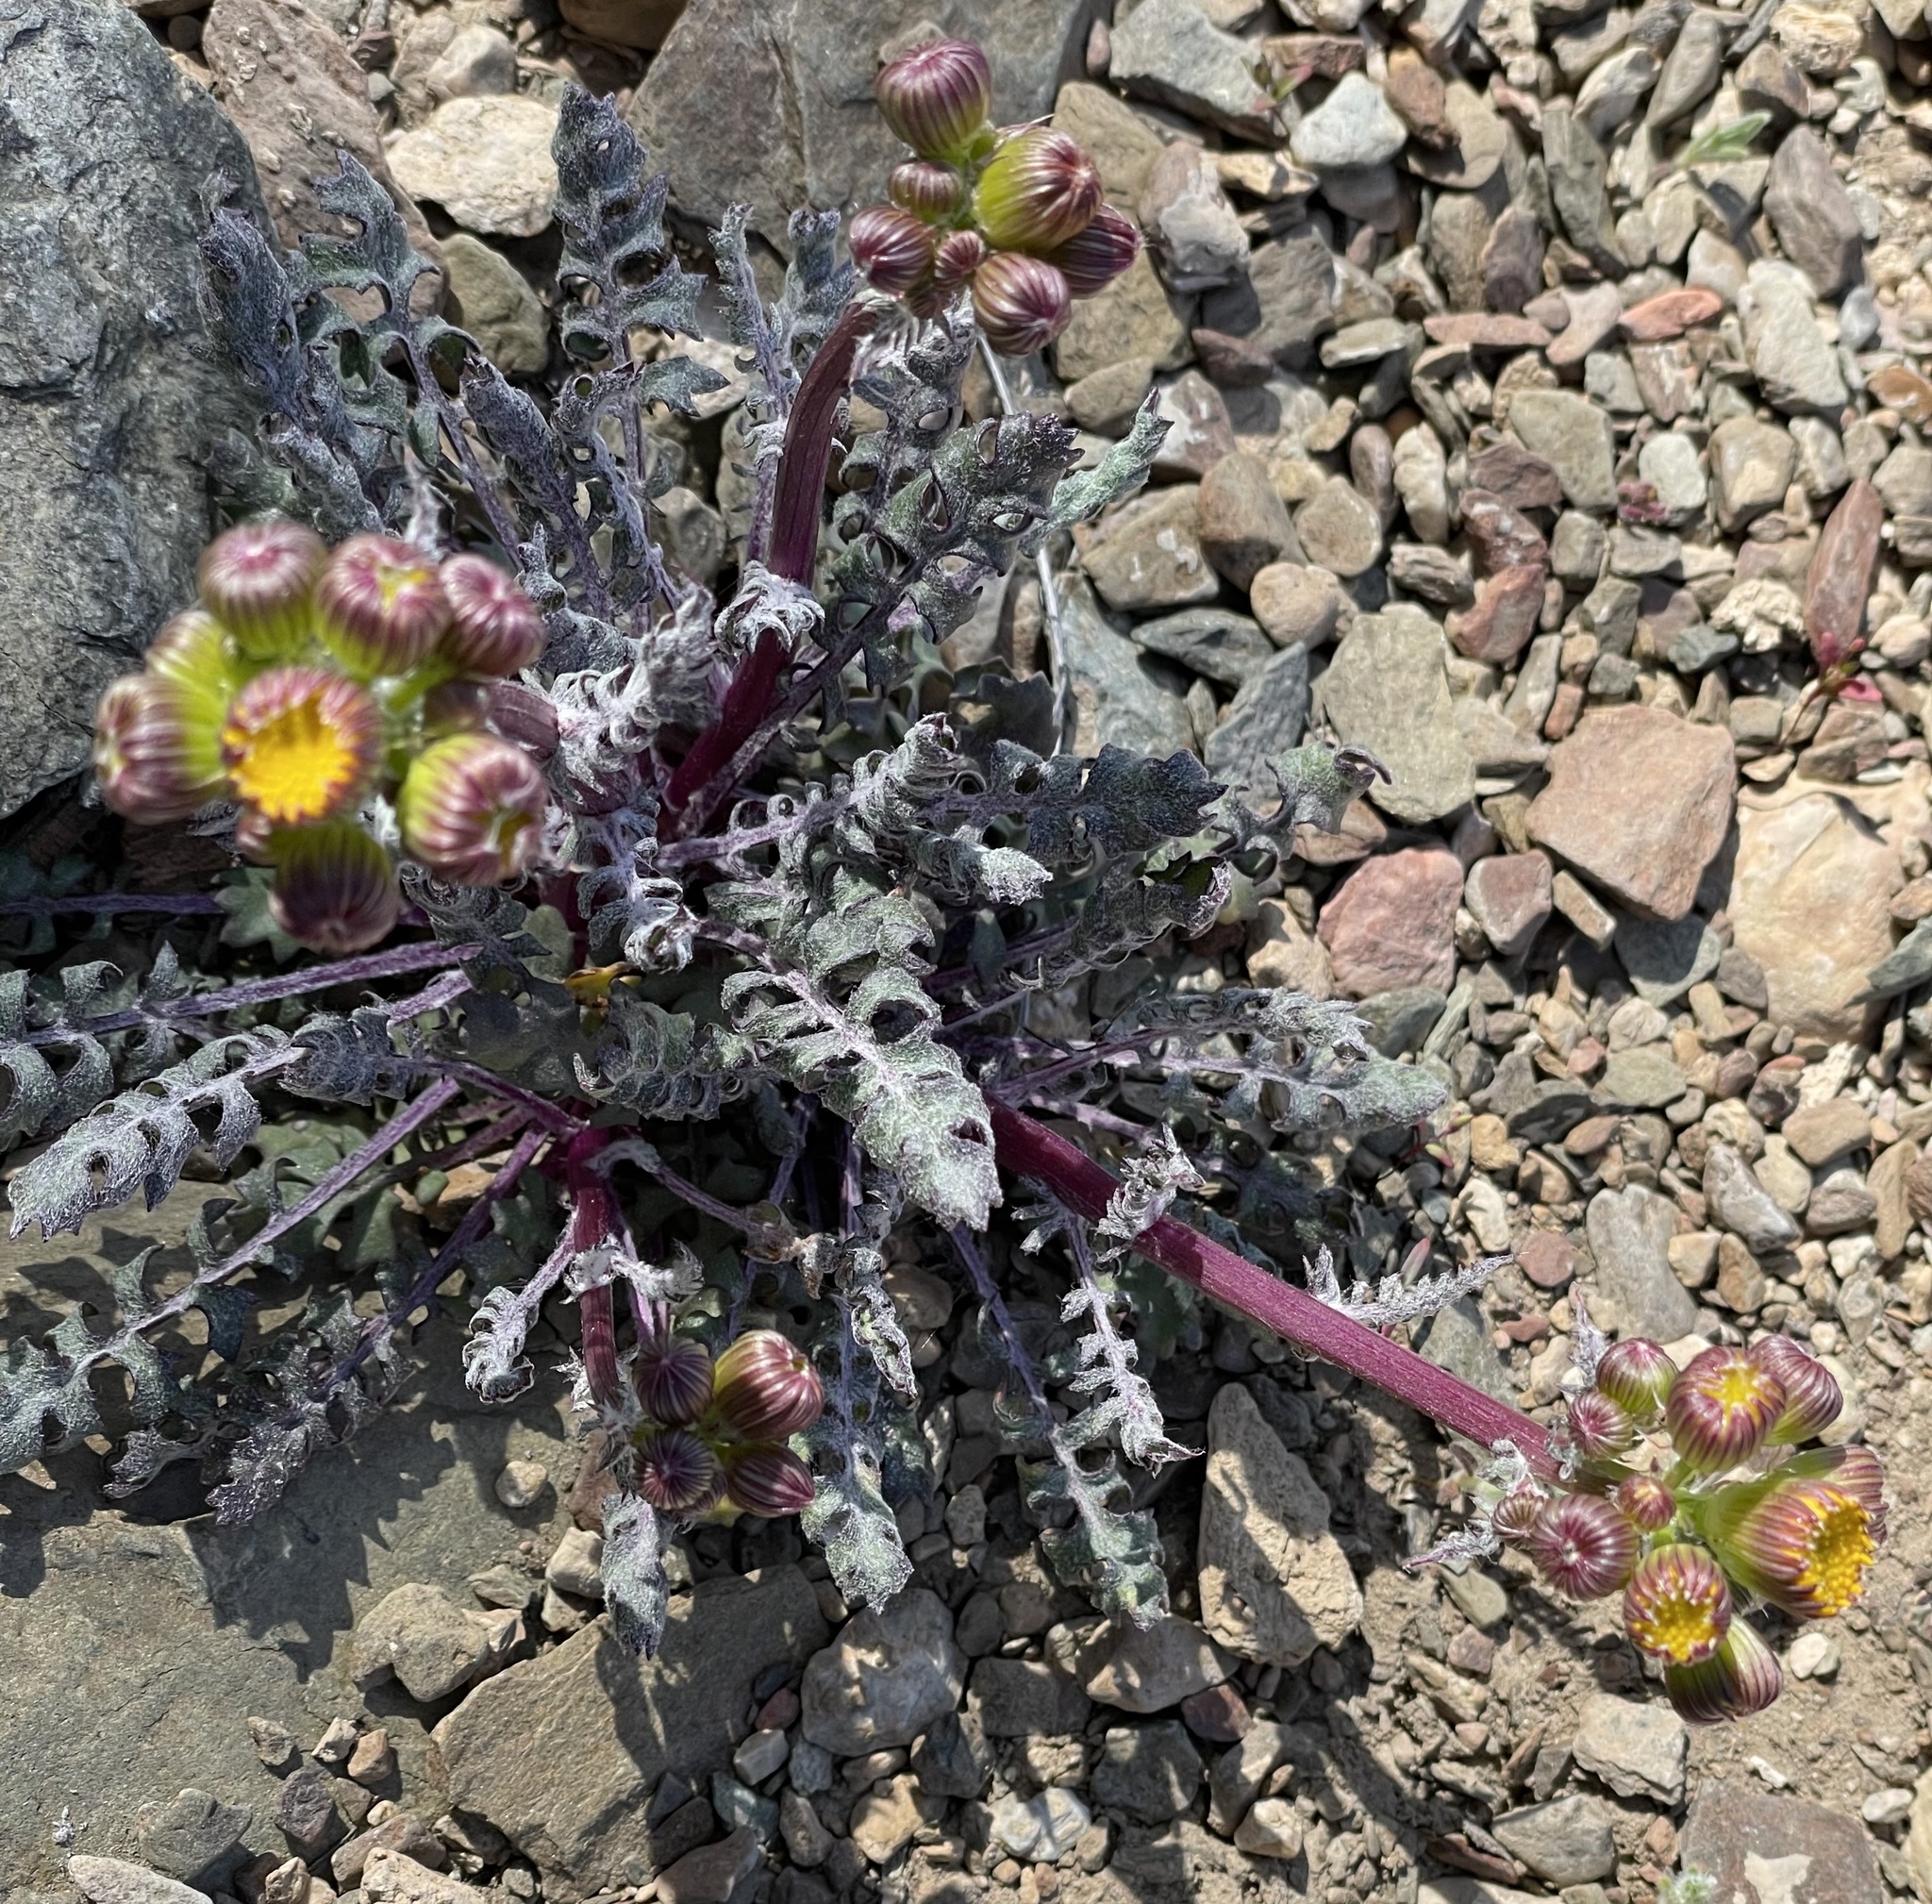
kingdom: Plantae
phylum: Tracheophyta
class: Magnoliopsida
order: Asterales
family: Asteraceae
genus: Packera
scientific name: Packera multilobata
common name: Lobe-leaf groundsel
